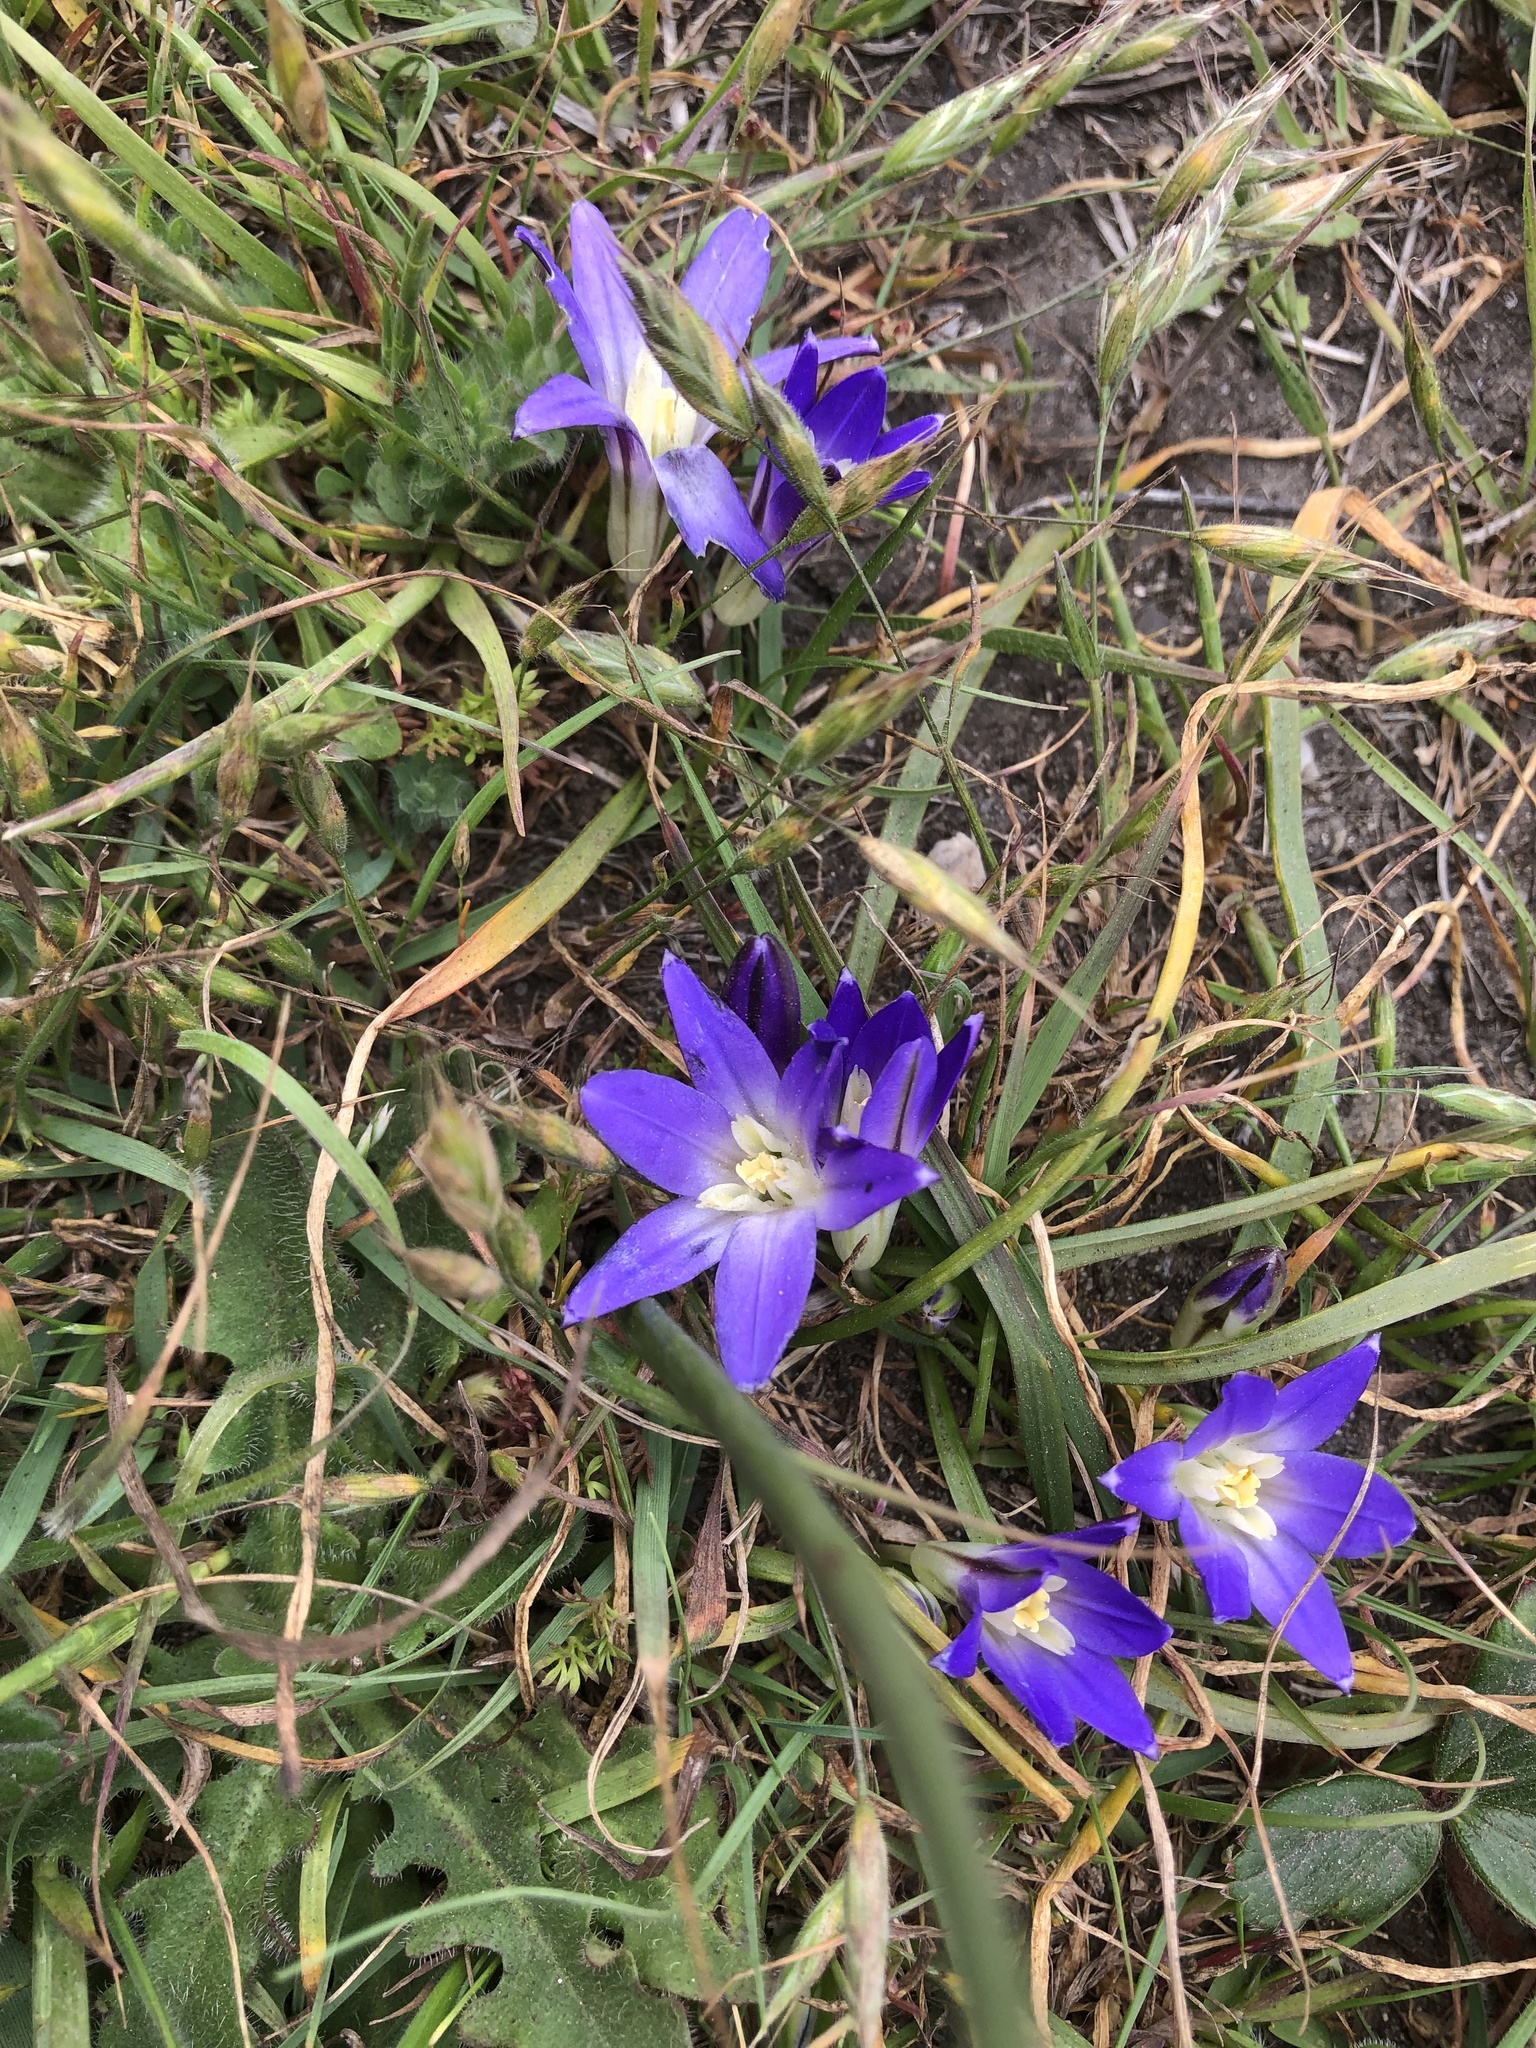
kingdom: Plantae
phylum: Tracheophyta
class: Liliopsida
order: Asparagales
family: Asparagaceae
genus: Brodiaea
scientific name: Brodiaea terrestris
